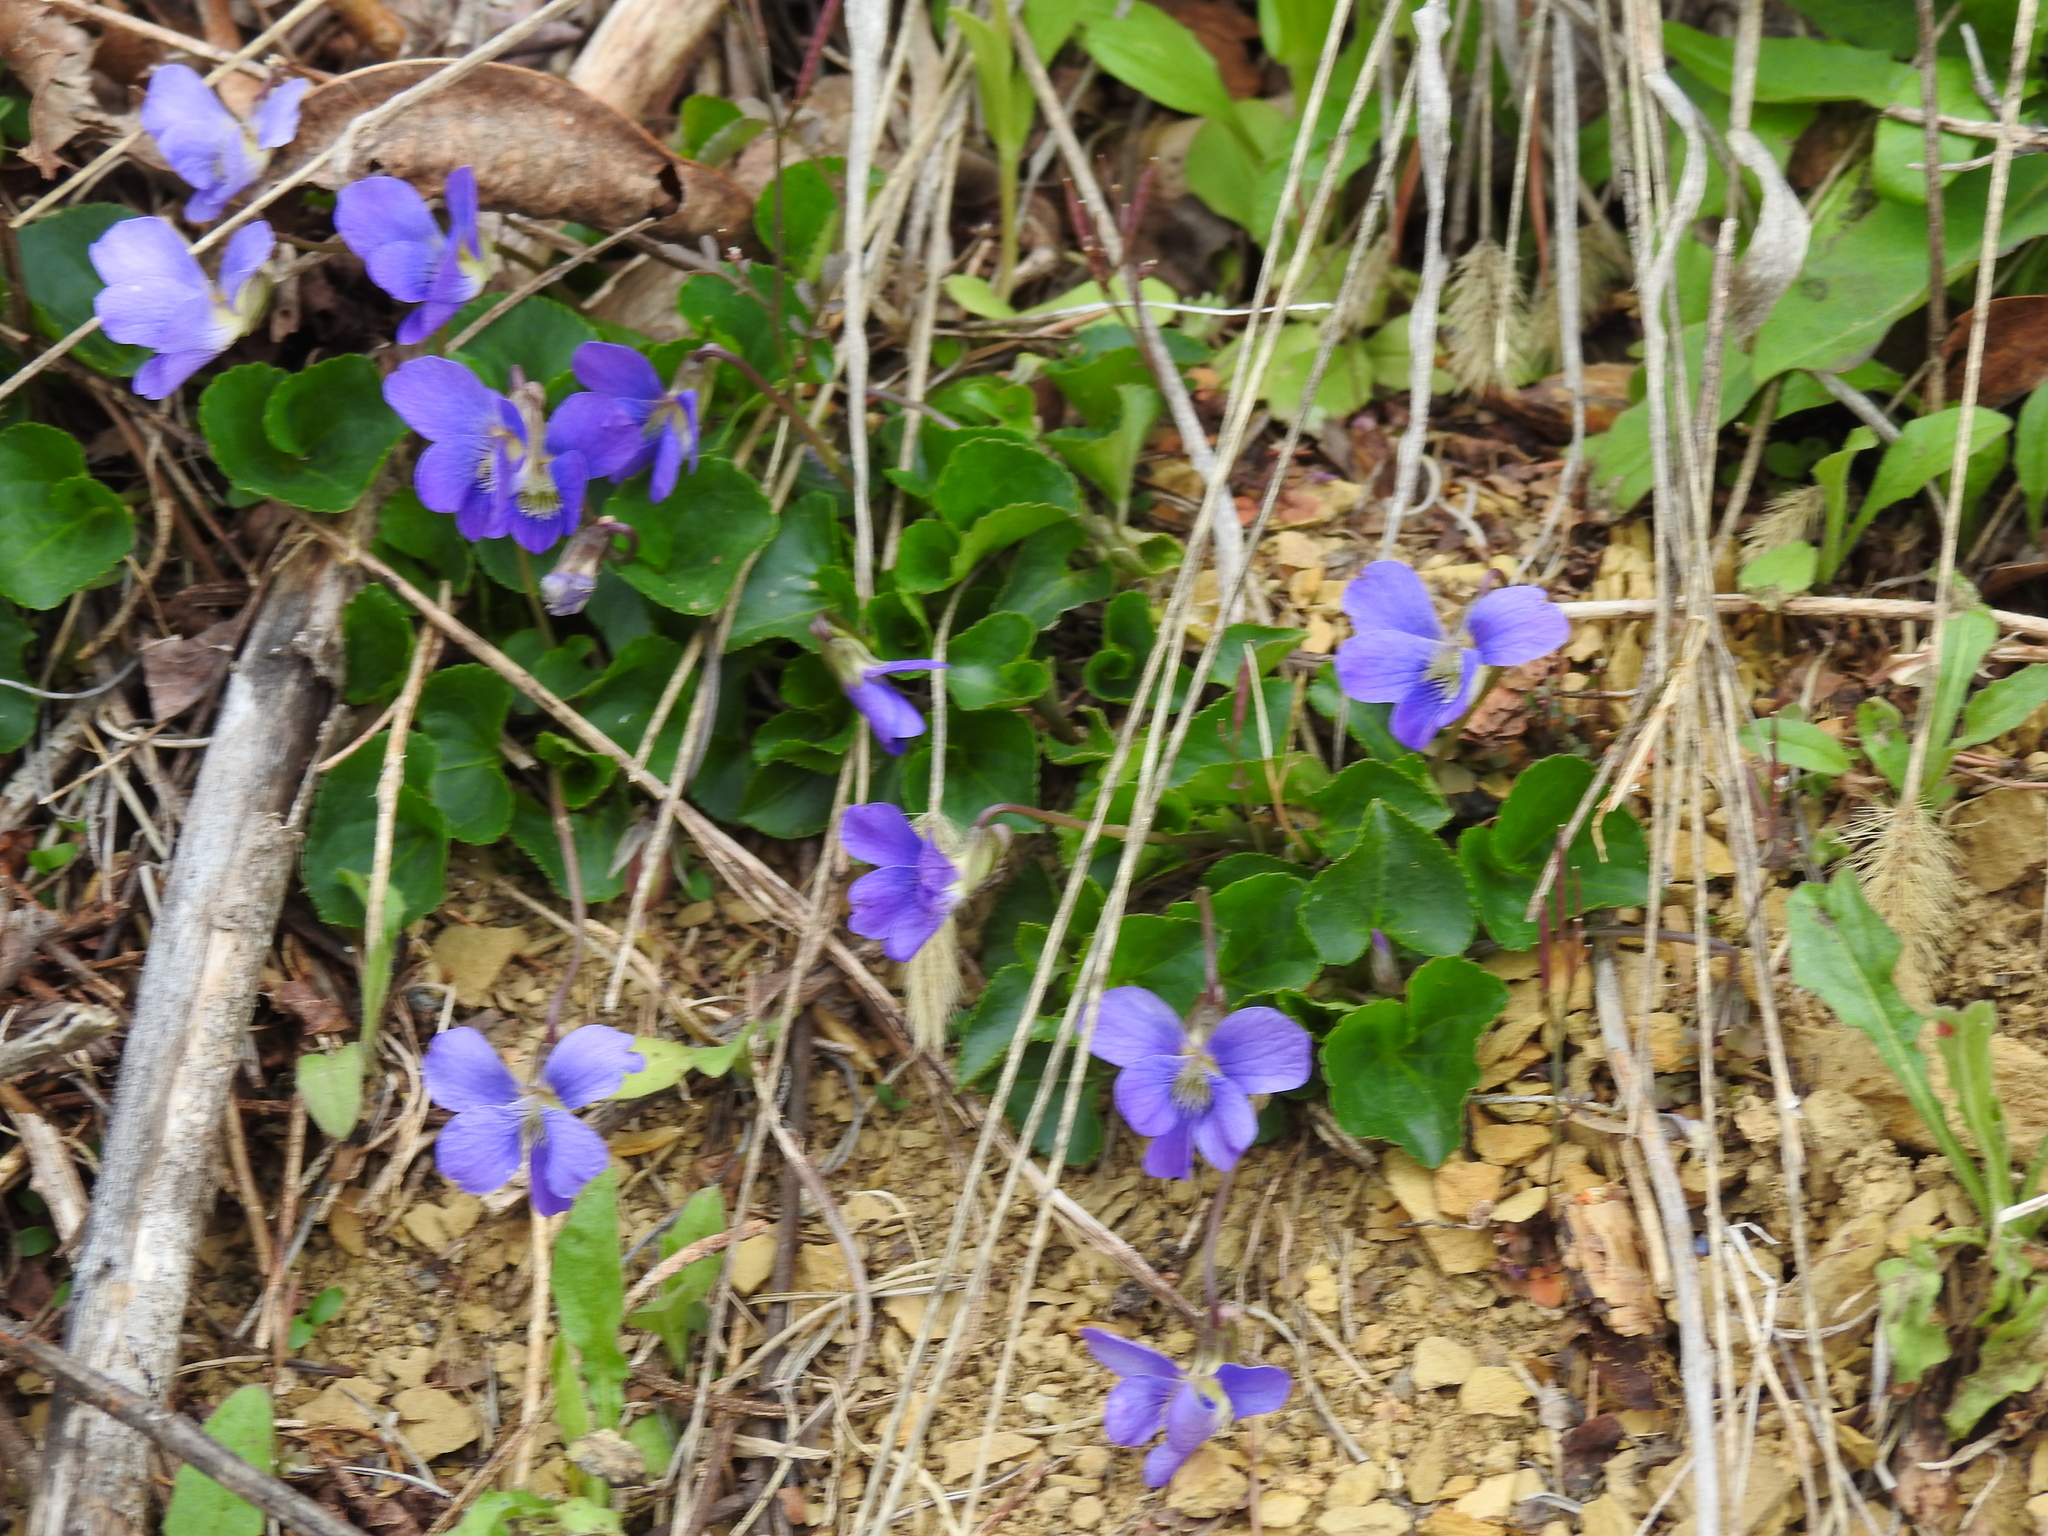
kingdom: Plantae
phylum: Tracheophyta
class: Magnoliopsida
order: Malpighiales
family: Violaceae
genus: Viola
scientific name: Viola sororia
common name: Dooryard violet
